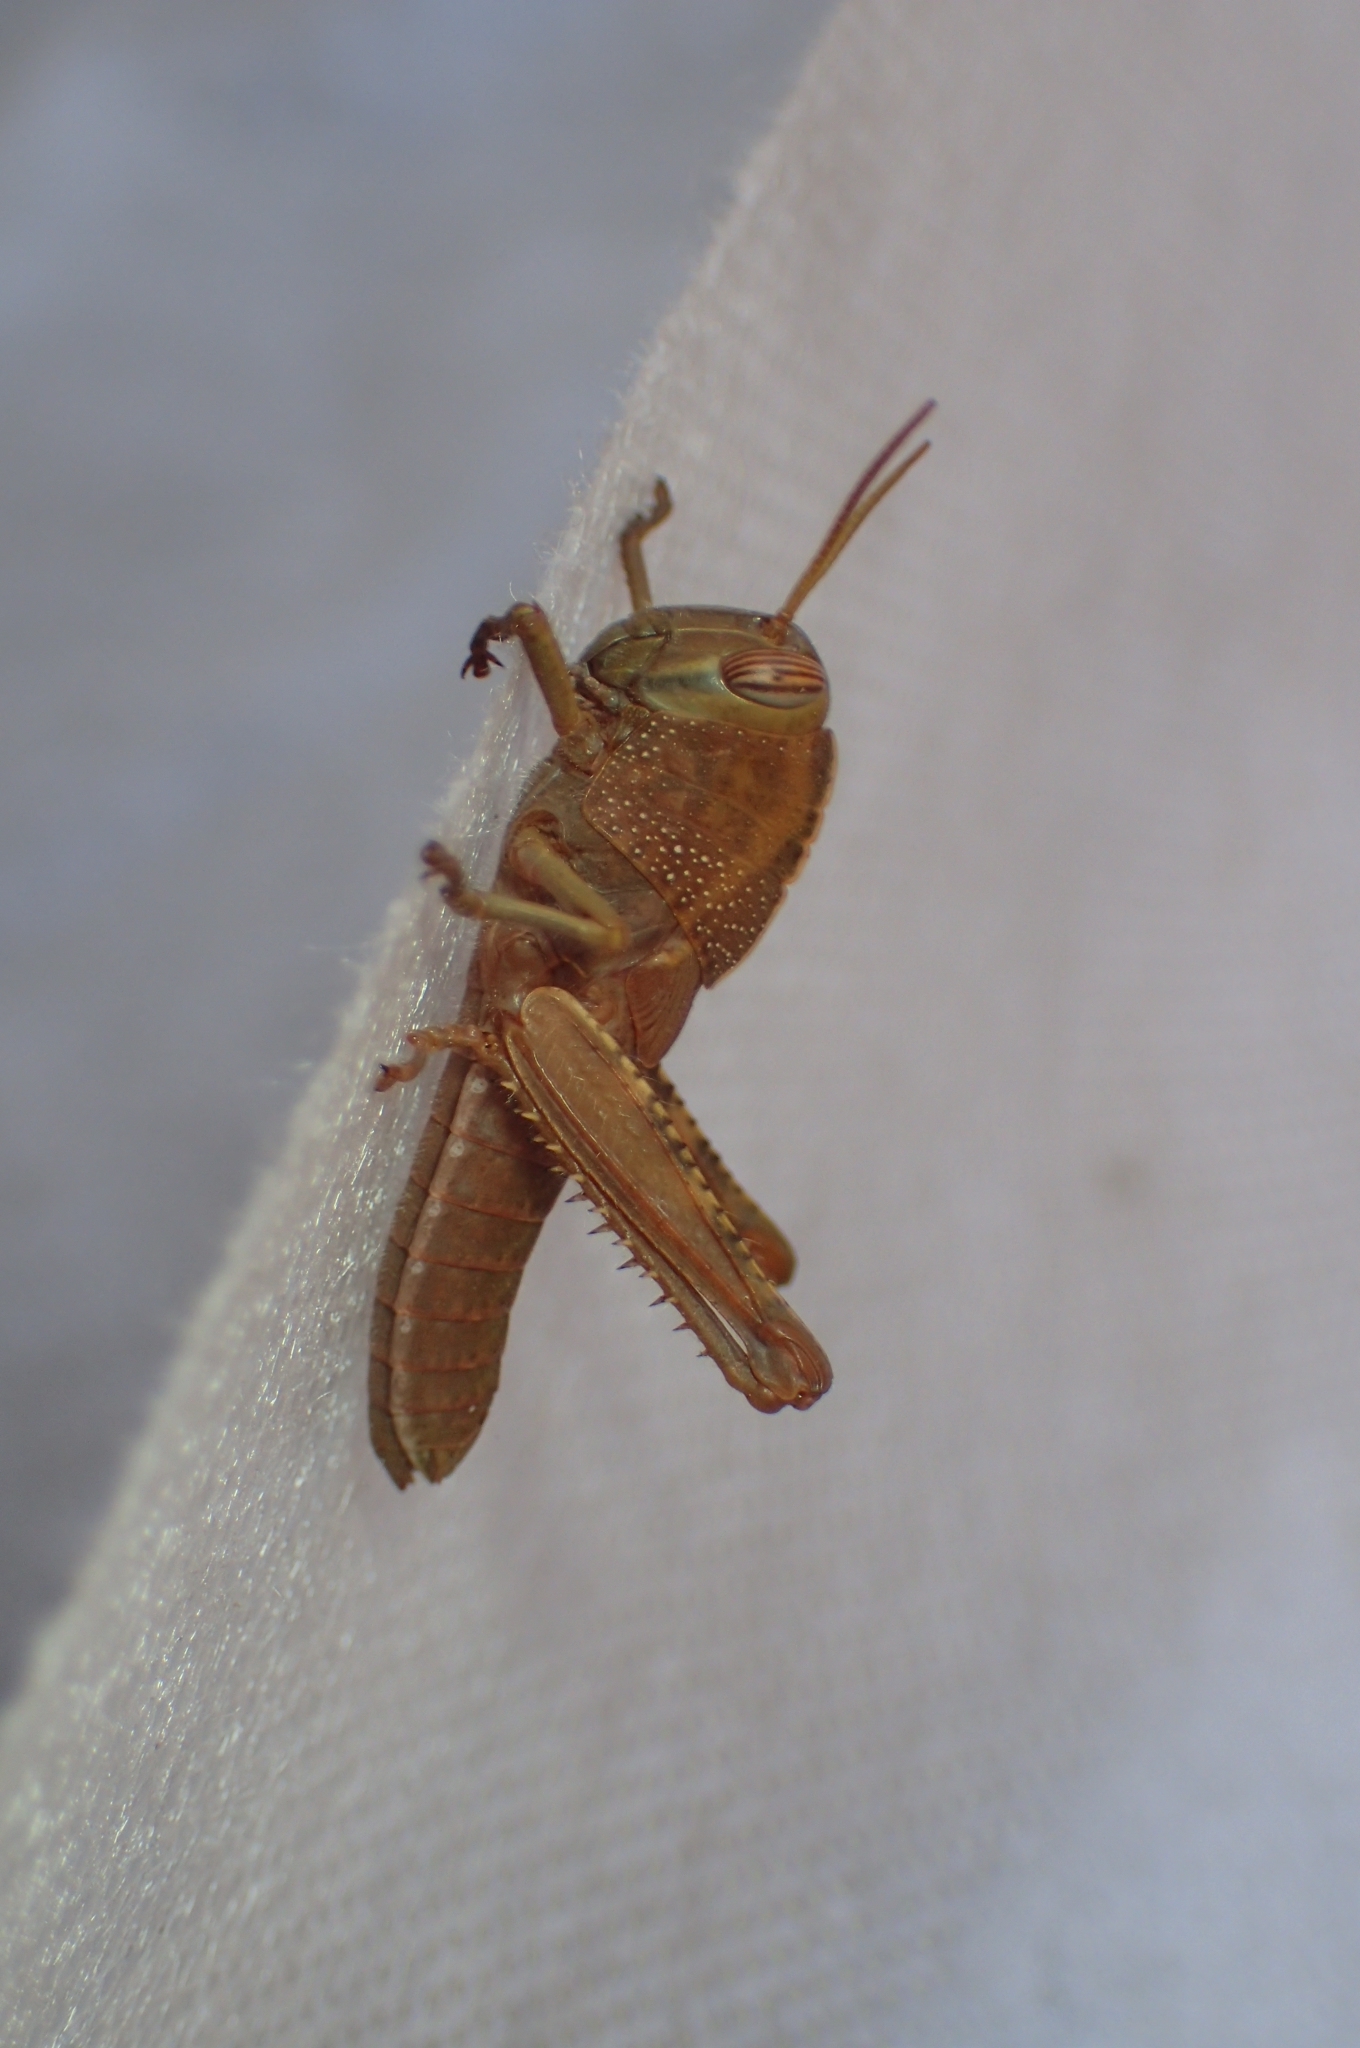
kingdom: Animalia
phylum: Arthropoda
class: Insecta
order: Orthoptera
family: Acrididae
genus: Anacridium
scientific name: Anacridium aegyptium
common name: Egyptian grasshopper
